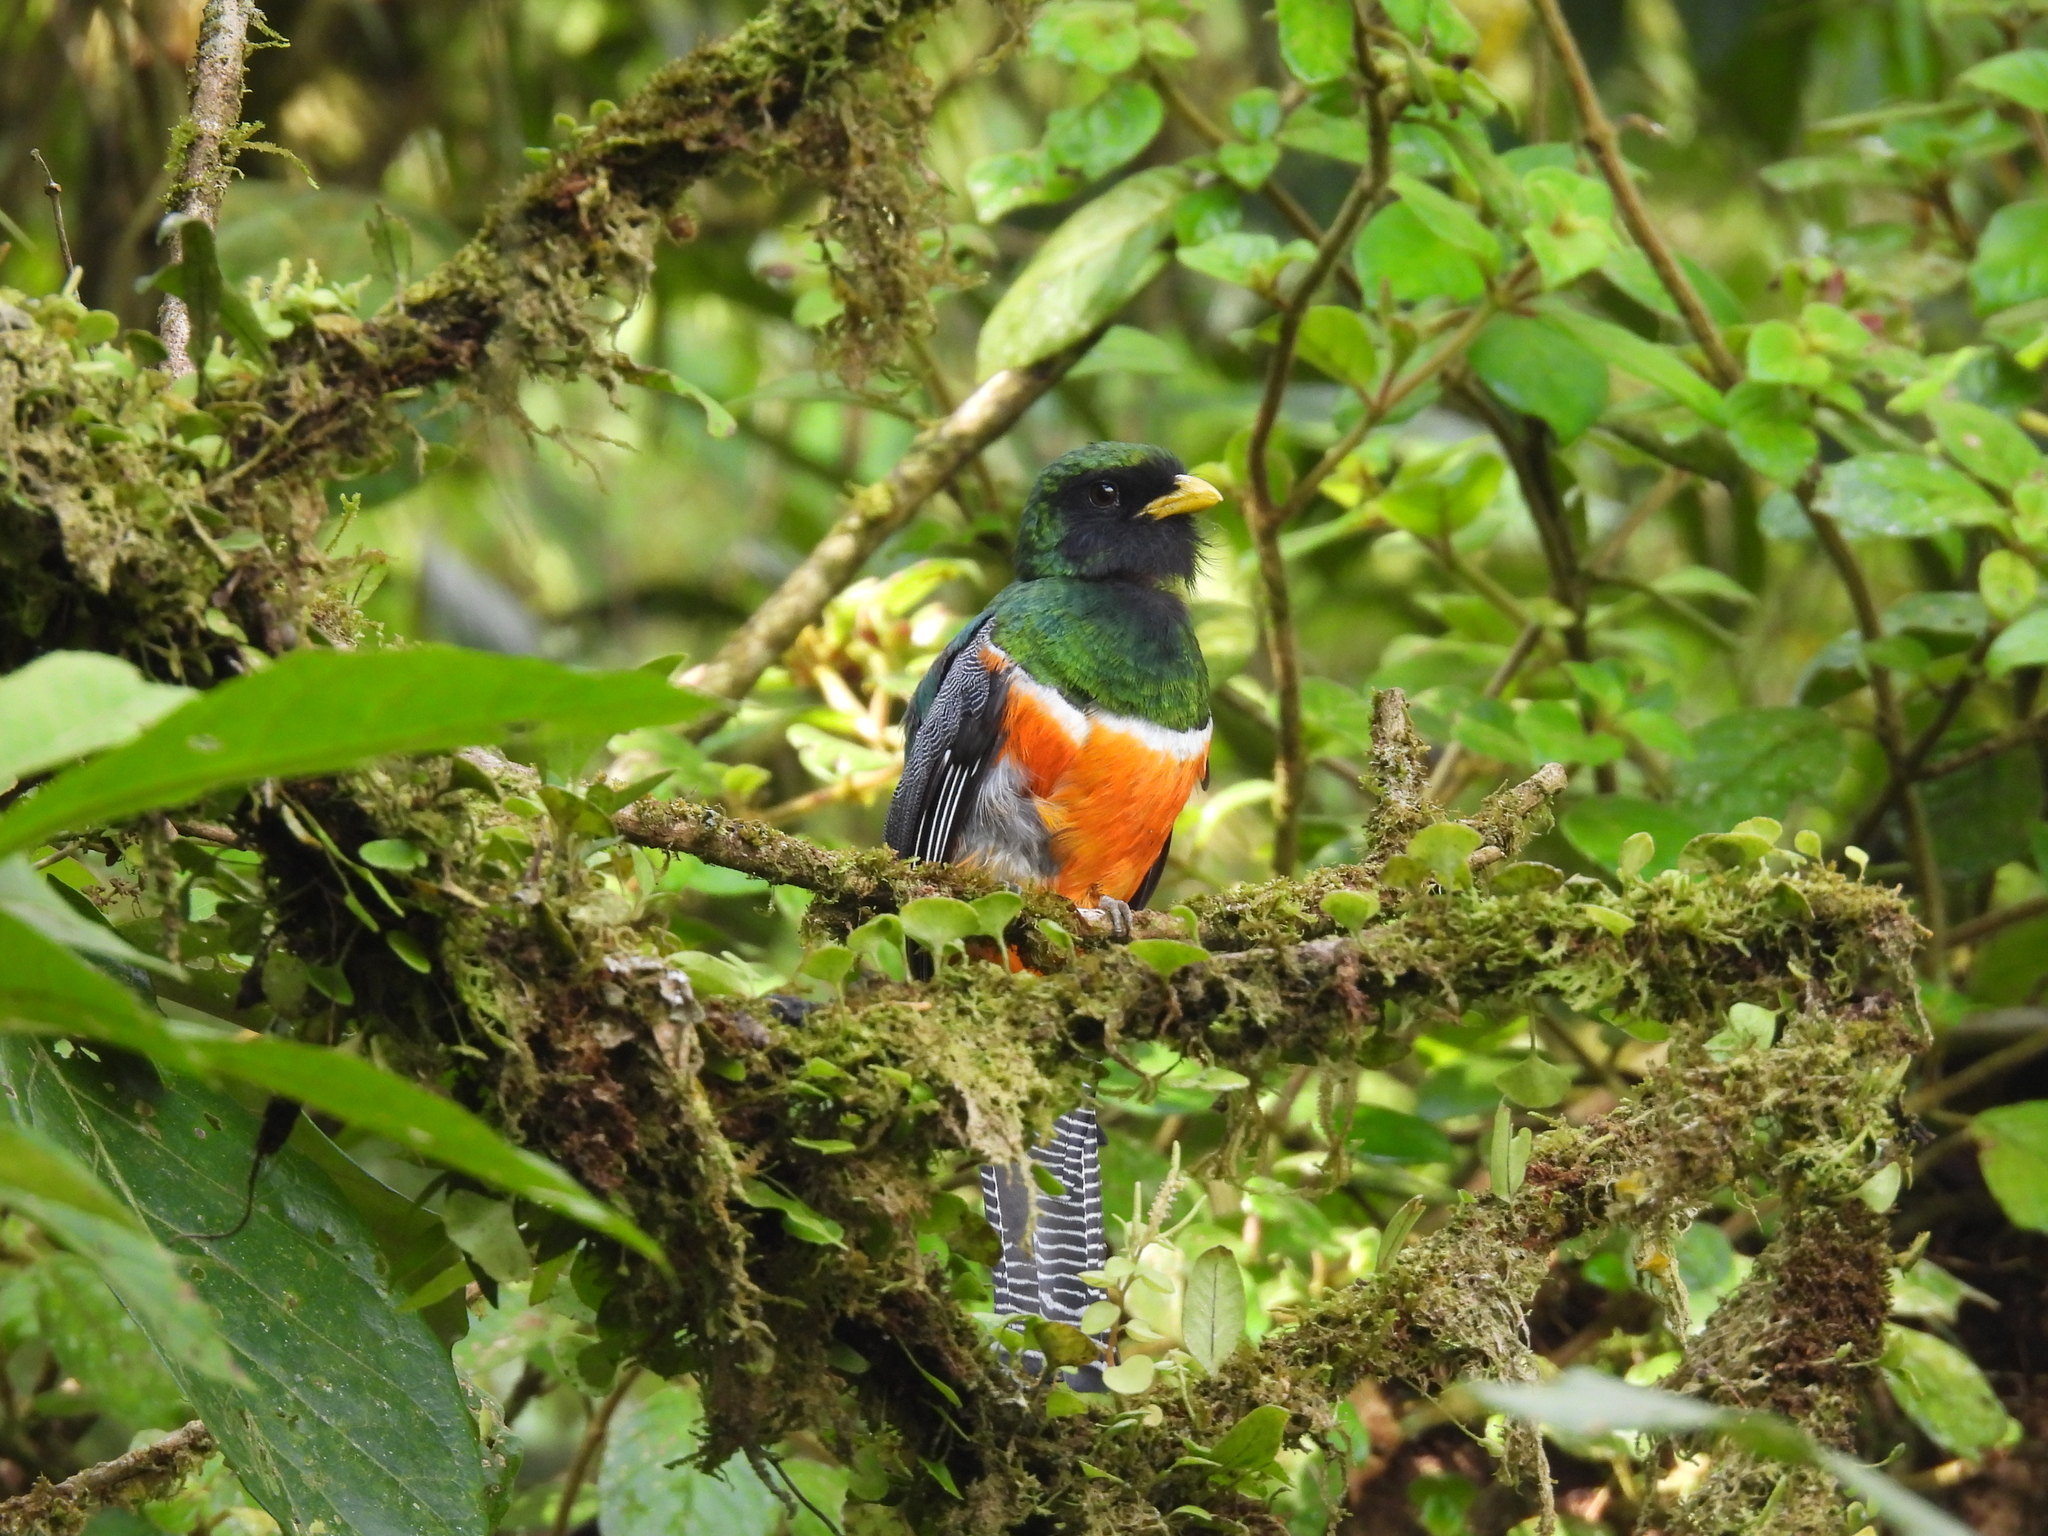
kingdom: Animalia
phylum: Chordata
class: Aves
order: Trogoniformes
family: Trogonidae
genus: Trogon
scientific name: Trogon collaris
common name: Collared trogon
